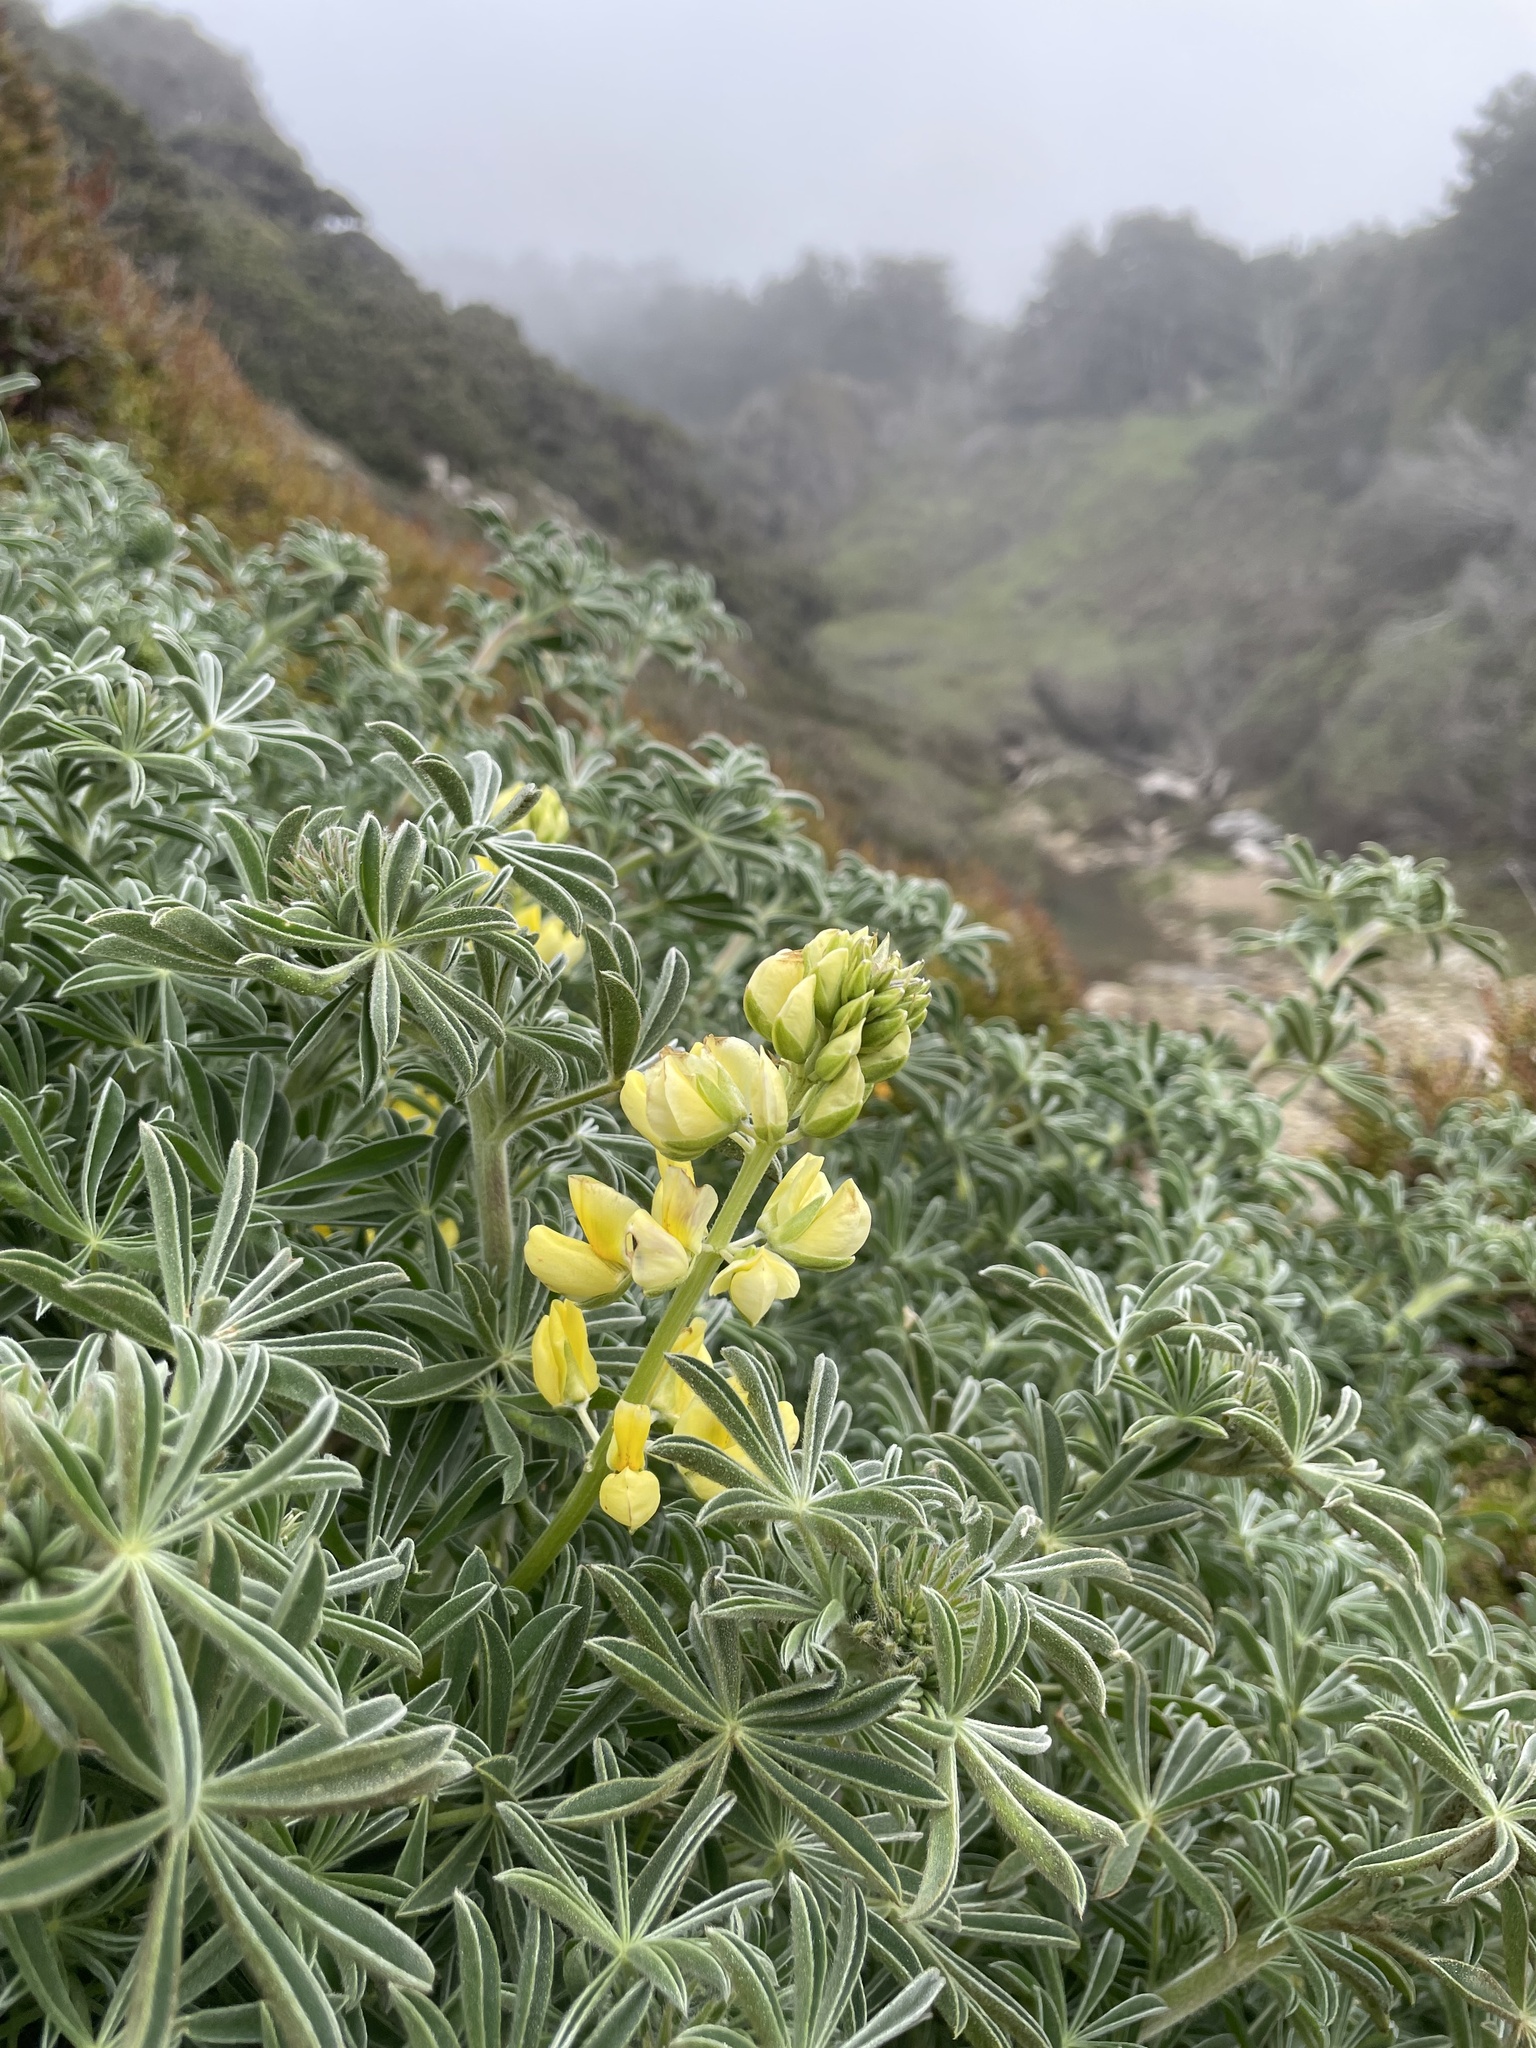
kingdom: Plantae
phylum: Tracheophyta
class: Magnoliopsida
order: Fabales
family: Fabaceae
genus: Lupinus
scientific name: Lupinus arboreus
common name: Yellow bush lupine
